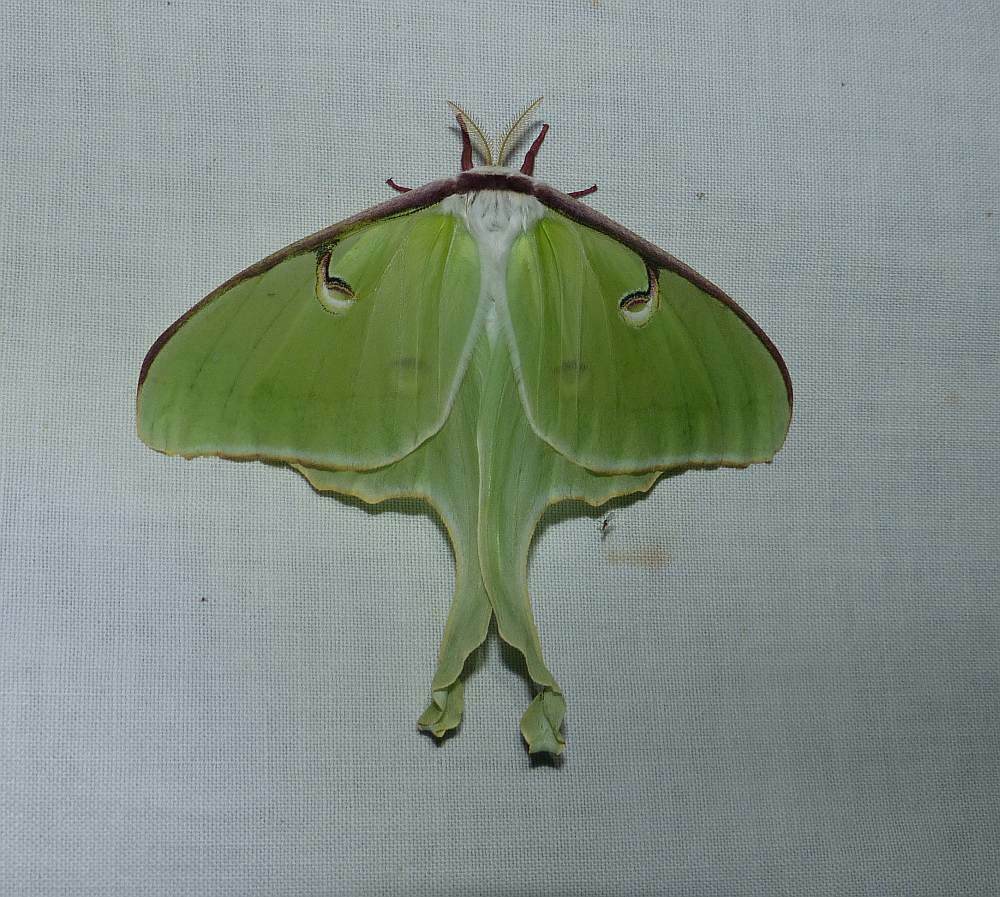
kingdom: Animalia
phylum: Arthropoda
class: Insecta
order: Lepidoptera
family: Saturniidae
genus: Actias
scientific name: Actias luna
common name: Luna moth
